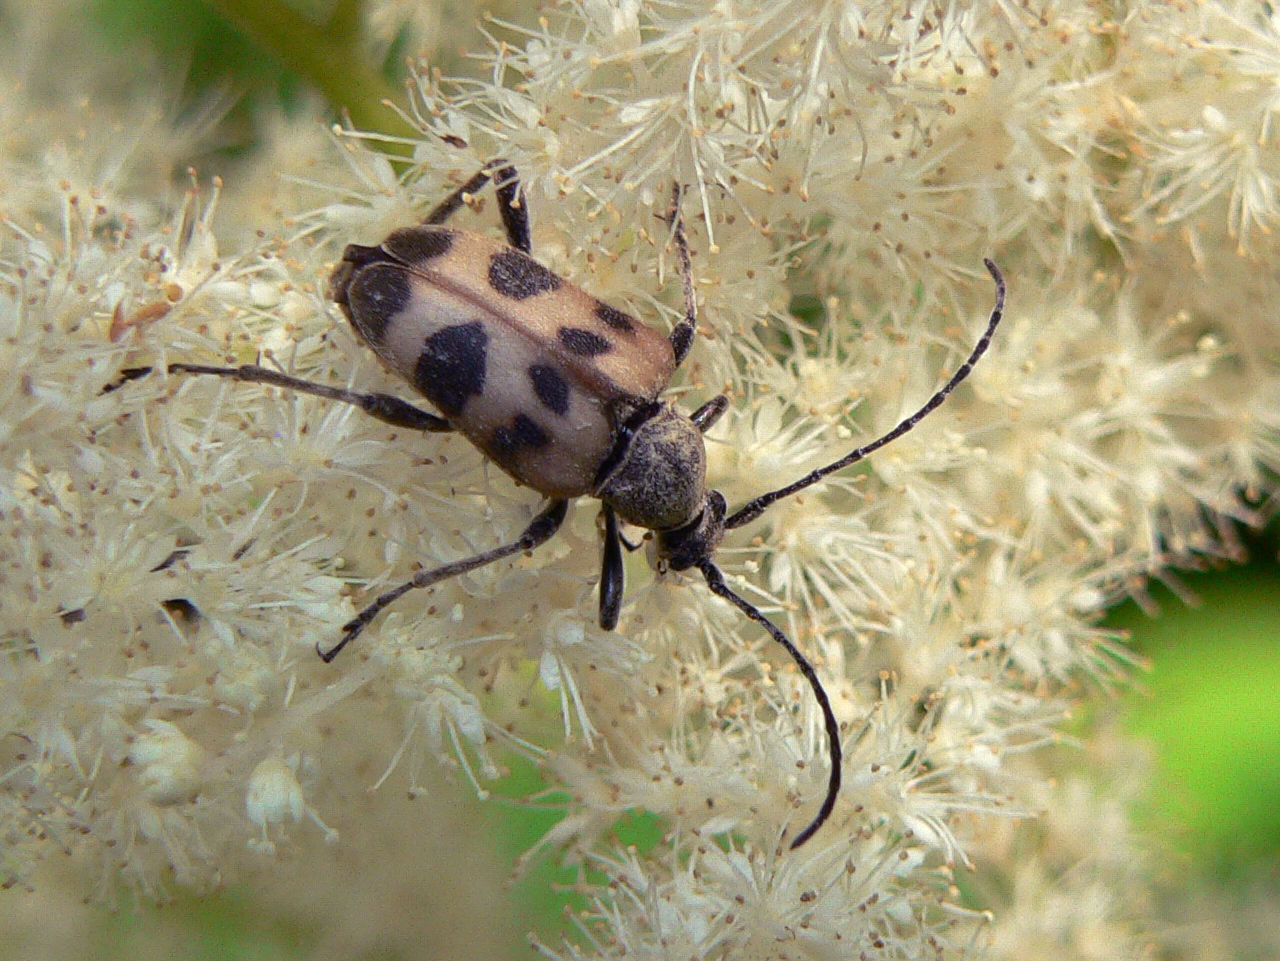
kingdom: Animalia
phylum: Arthropoda
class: Insecta
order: Coleoptera
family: Cerambycidae
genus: Pachytodes
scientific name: Pachytodes cerambyciformis
